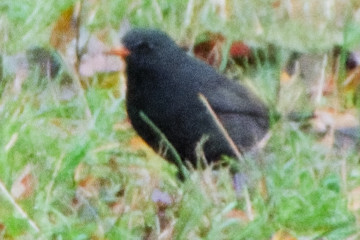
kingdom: Animalia
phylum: Chordata
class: Aves
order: Passeriformes
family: Turdidae
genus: Turdus
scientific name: Turdus merula
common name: Common blackbird
